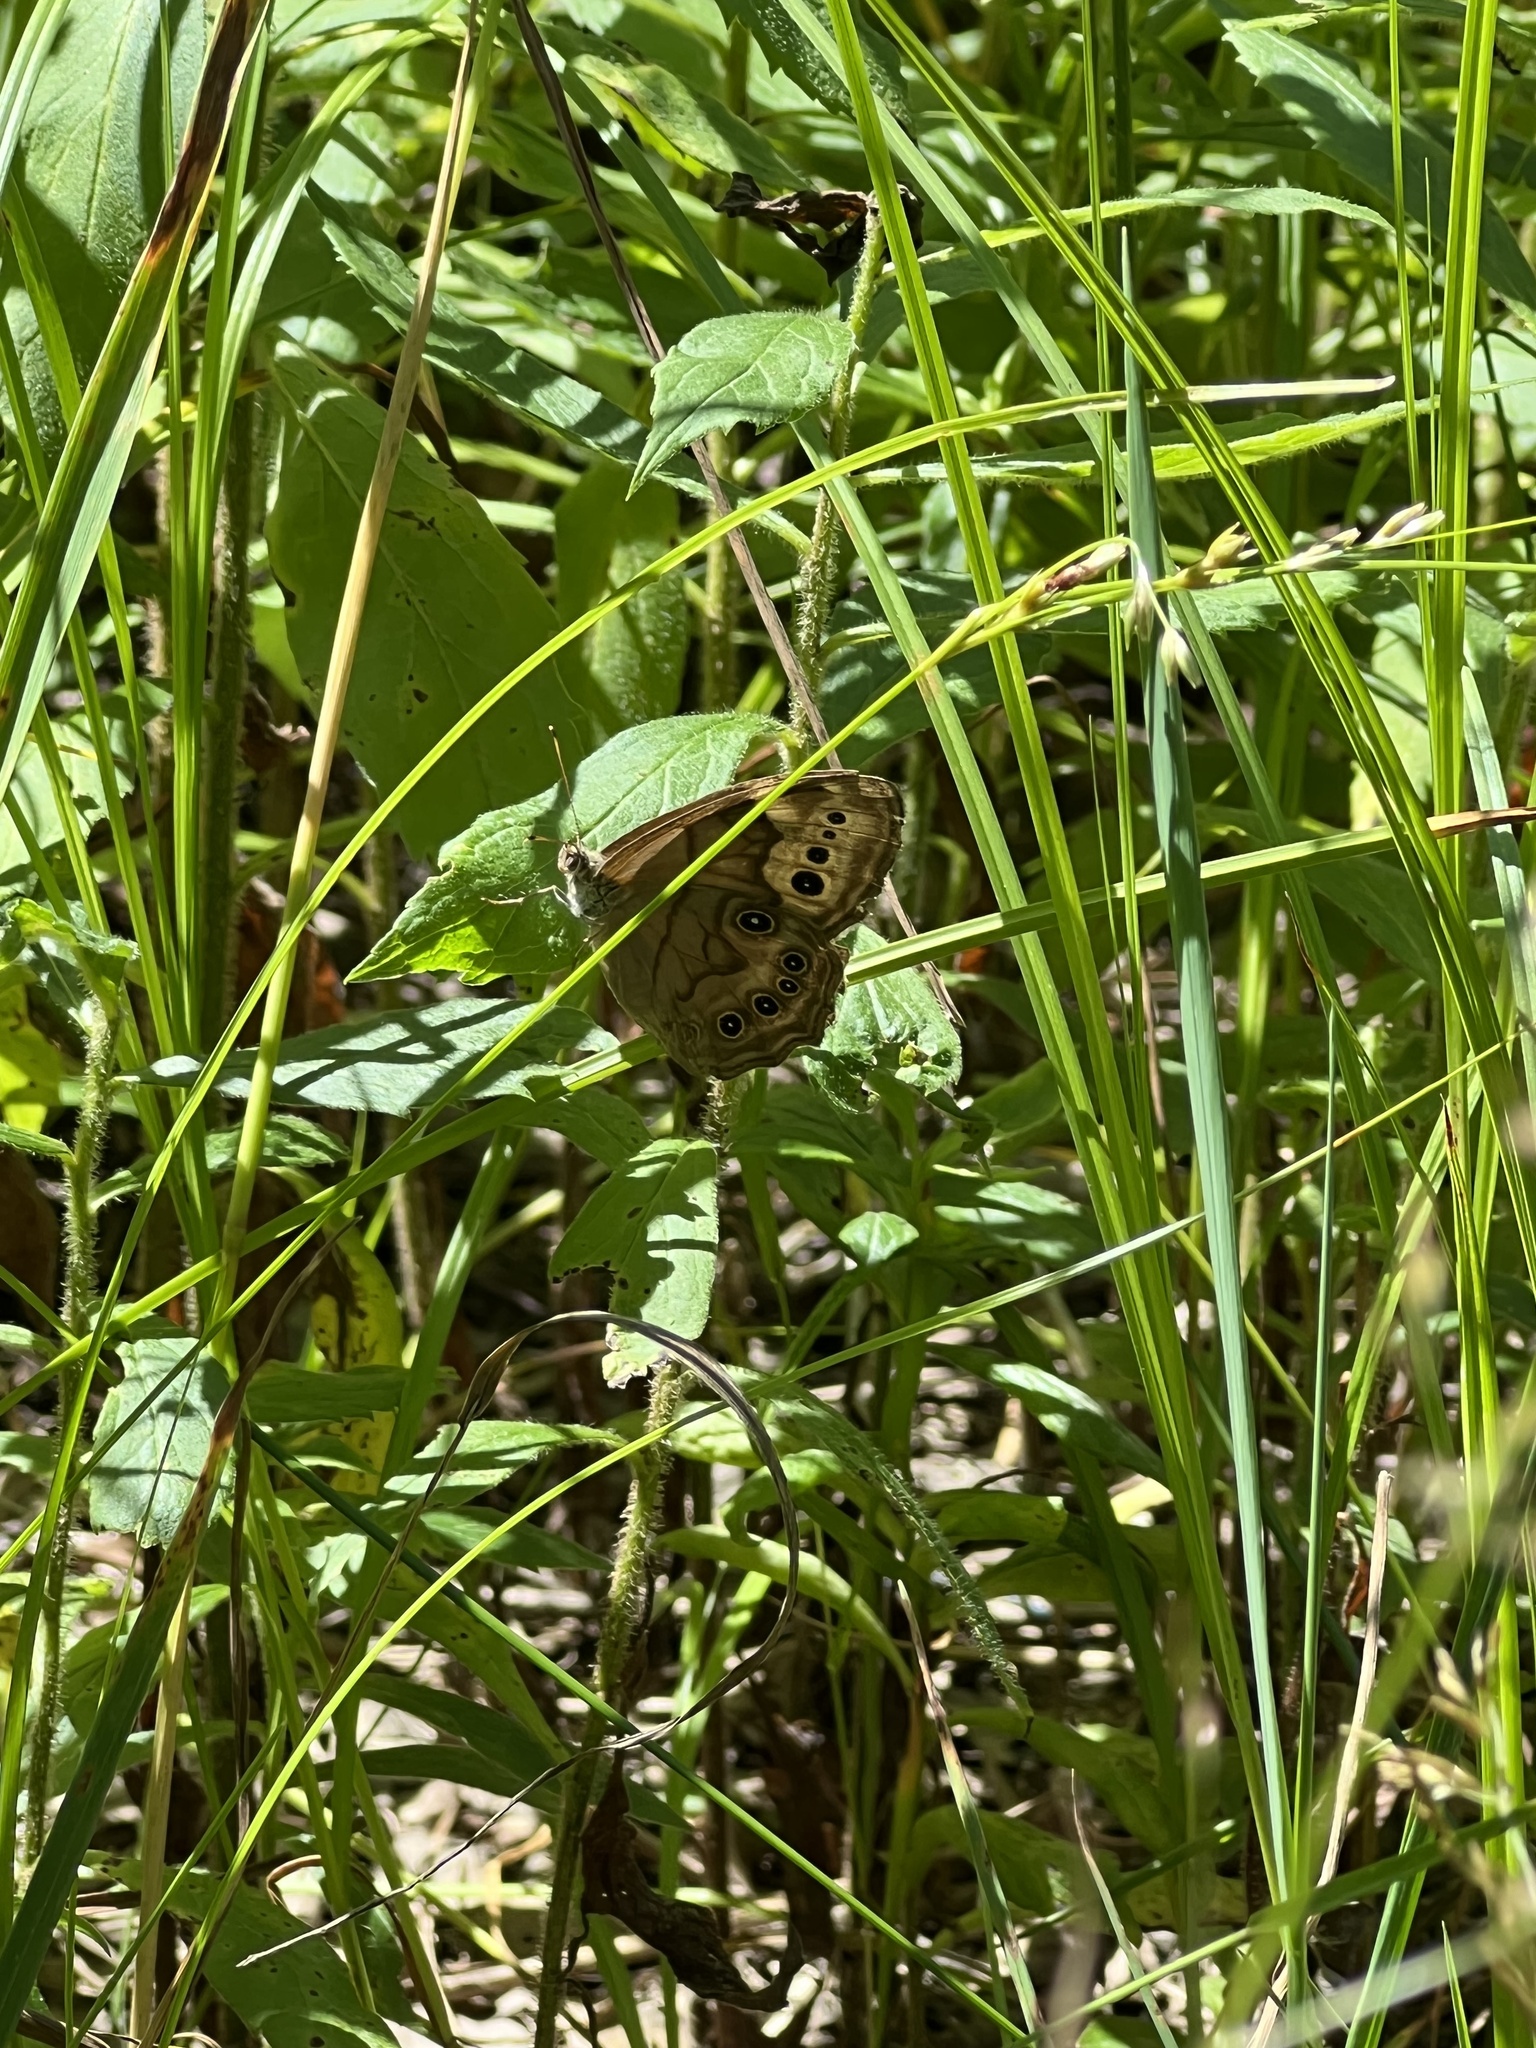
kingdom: Animalia
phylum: Arthropoda
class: Insecta
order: Lepidoptera
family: Nymphalidae
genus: Lethe
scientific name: Lethe anthedon
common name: Northern pearly-eye
